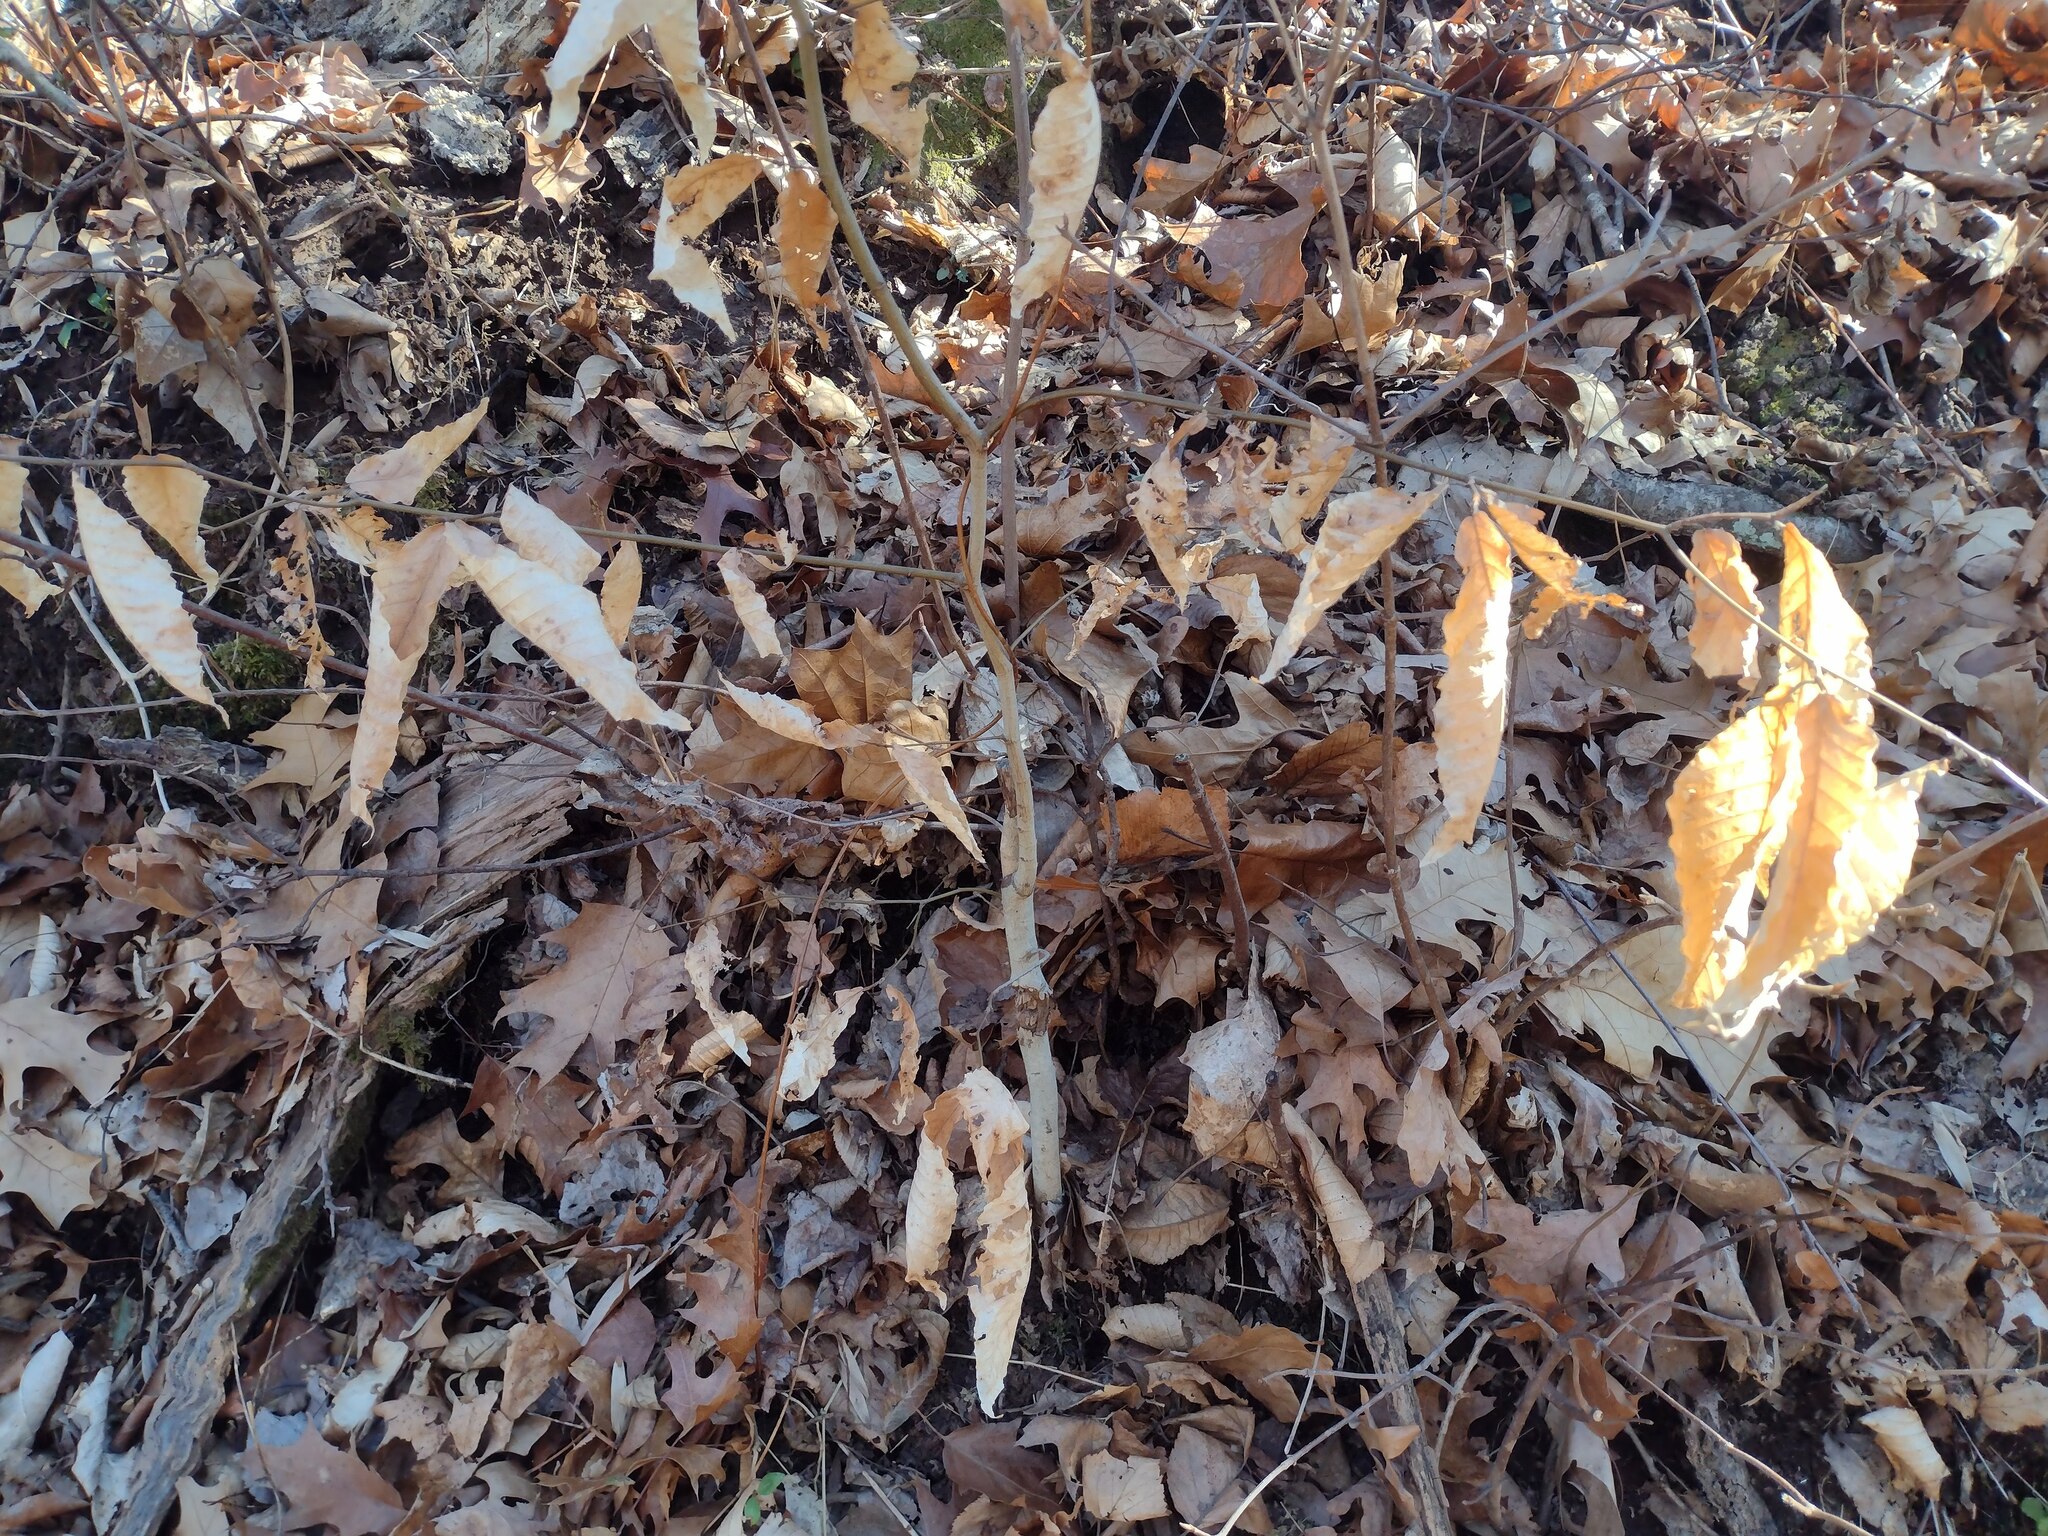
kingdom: Plantae
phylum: Tracheophyta
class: Magnoliopsida
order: Fagales
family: Fagaceae
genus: Fagus
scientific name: Fagus grandifolia
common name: American beech
